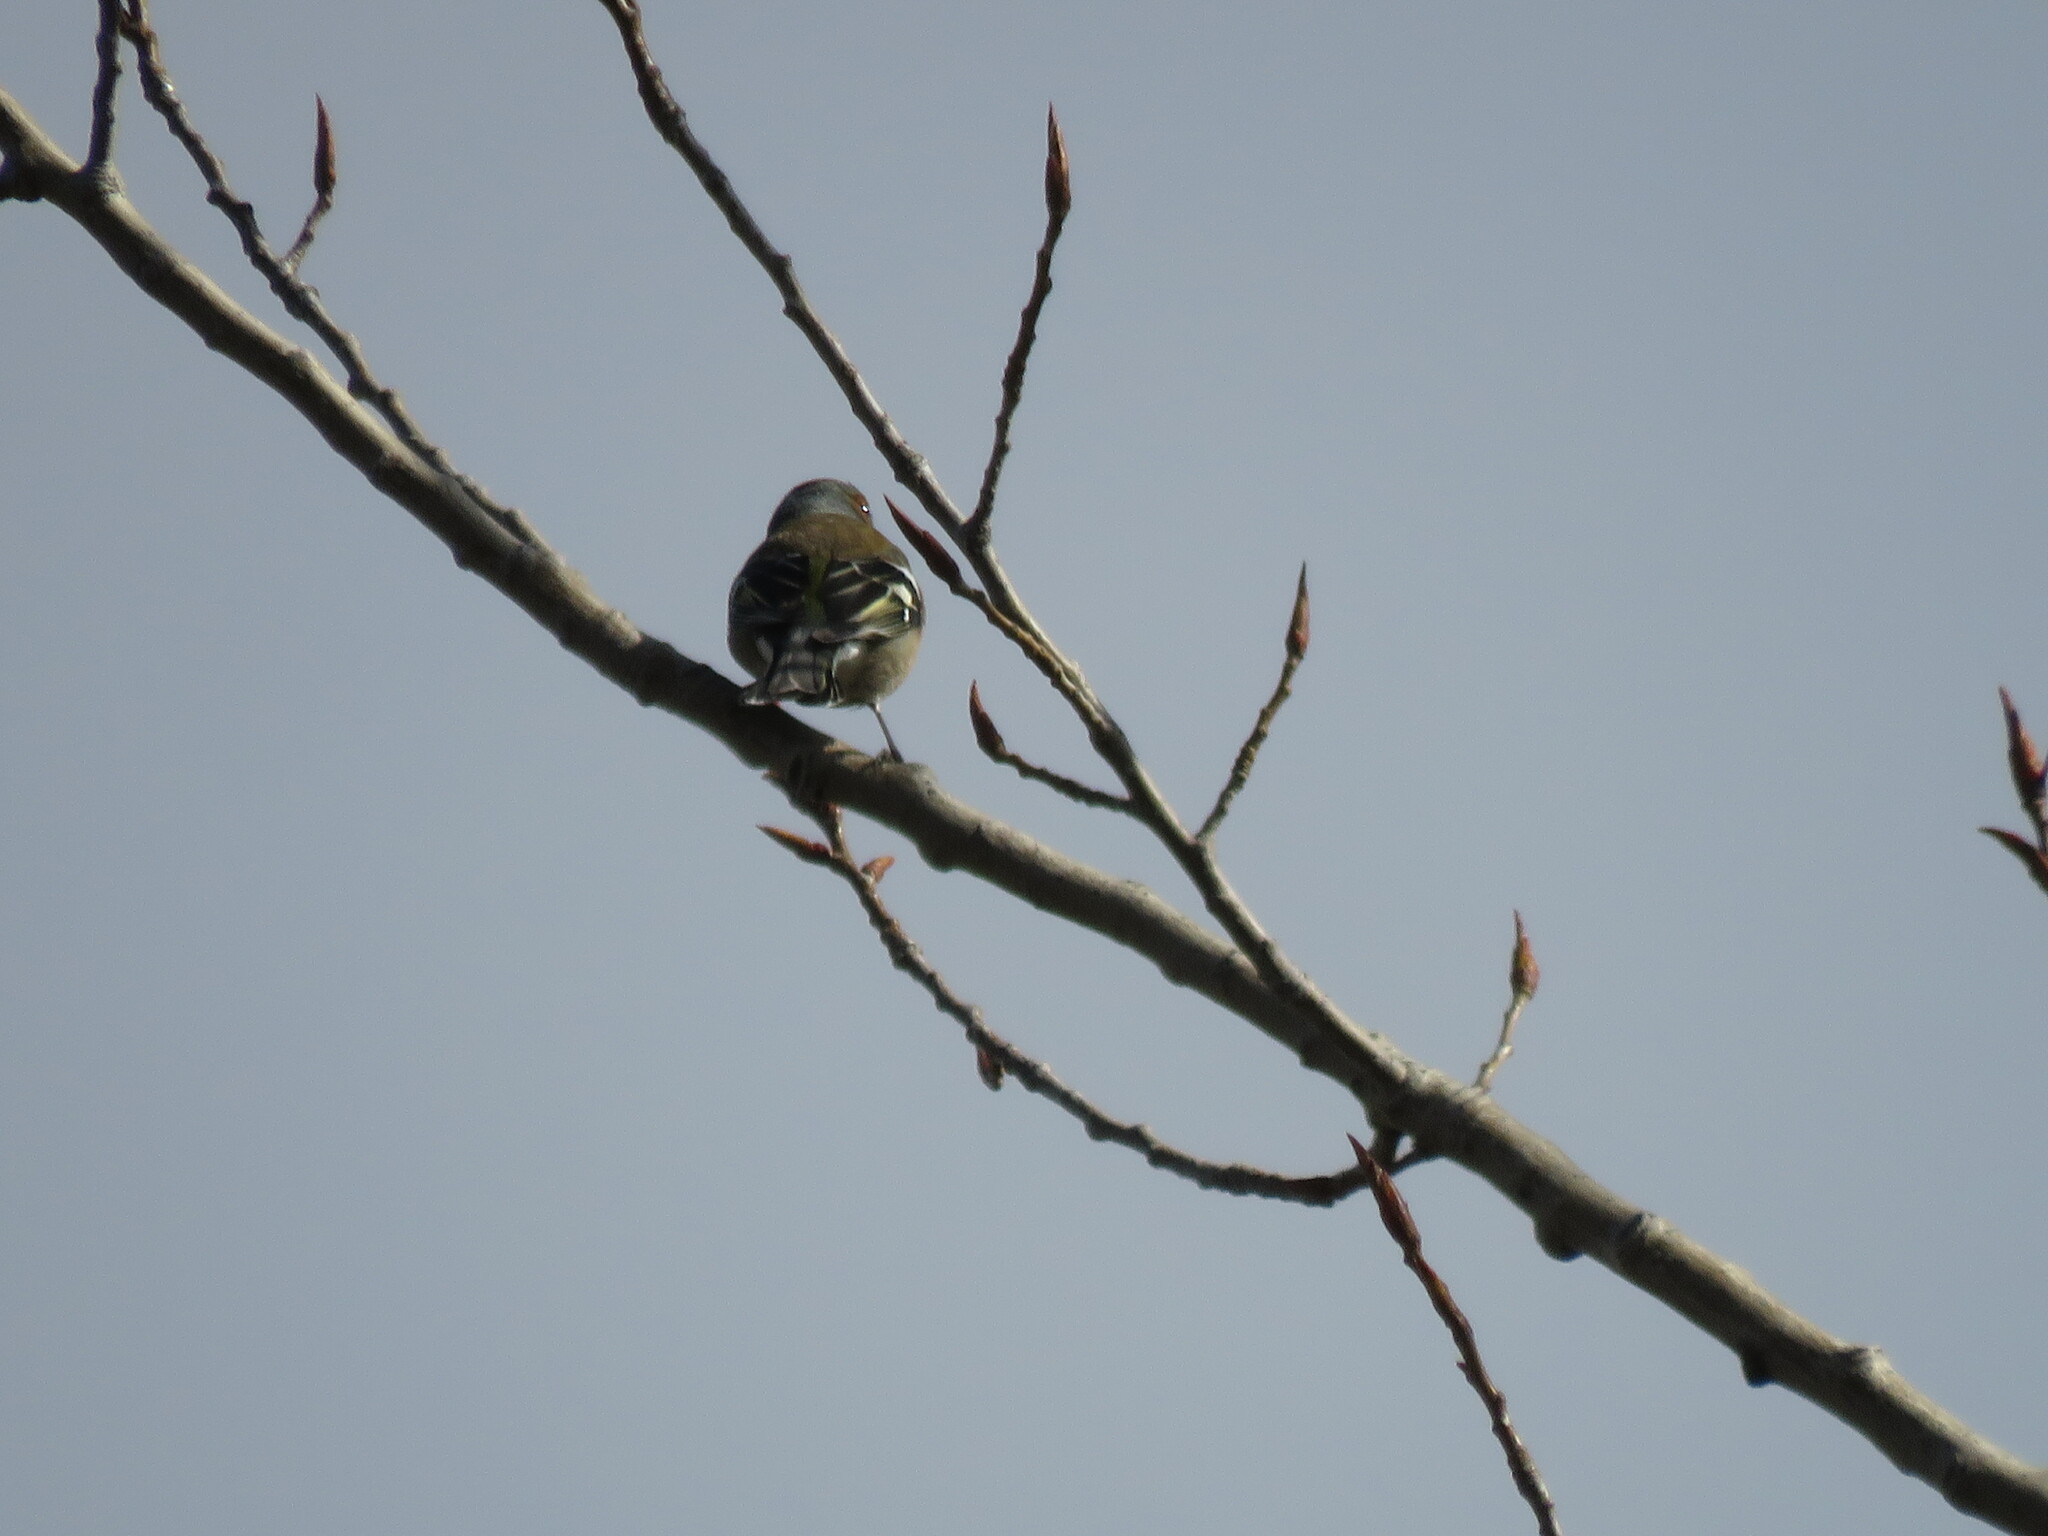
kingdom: Animalia
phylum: Chordata
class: Aves
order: Passeriformes
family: Fringillidae
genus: Fringilla
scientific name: Fringilla coelebs
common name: Common chaffinch
